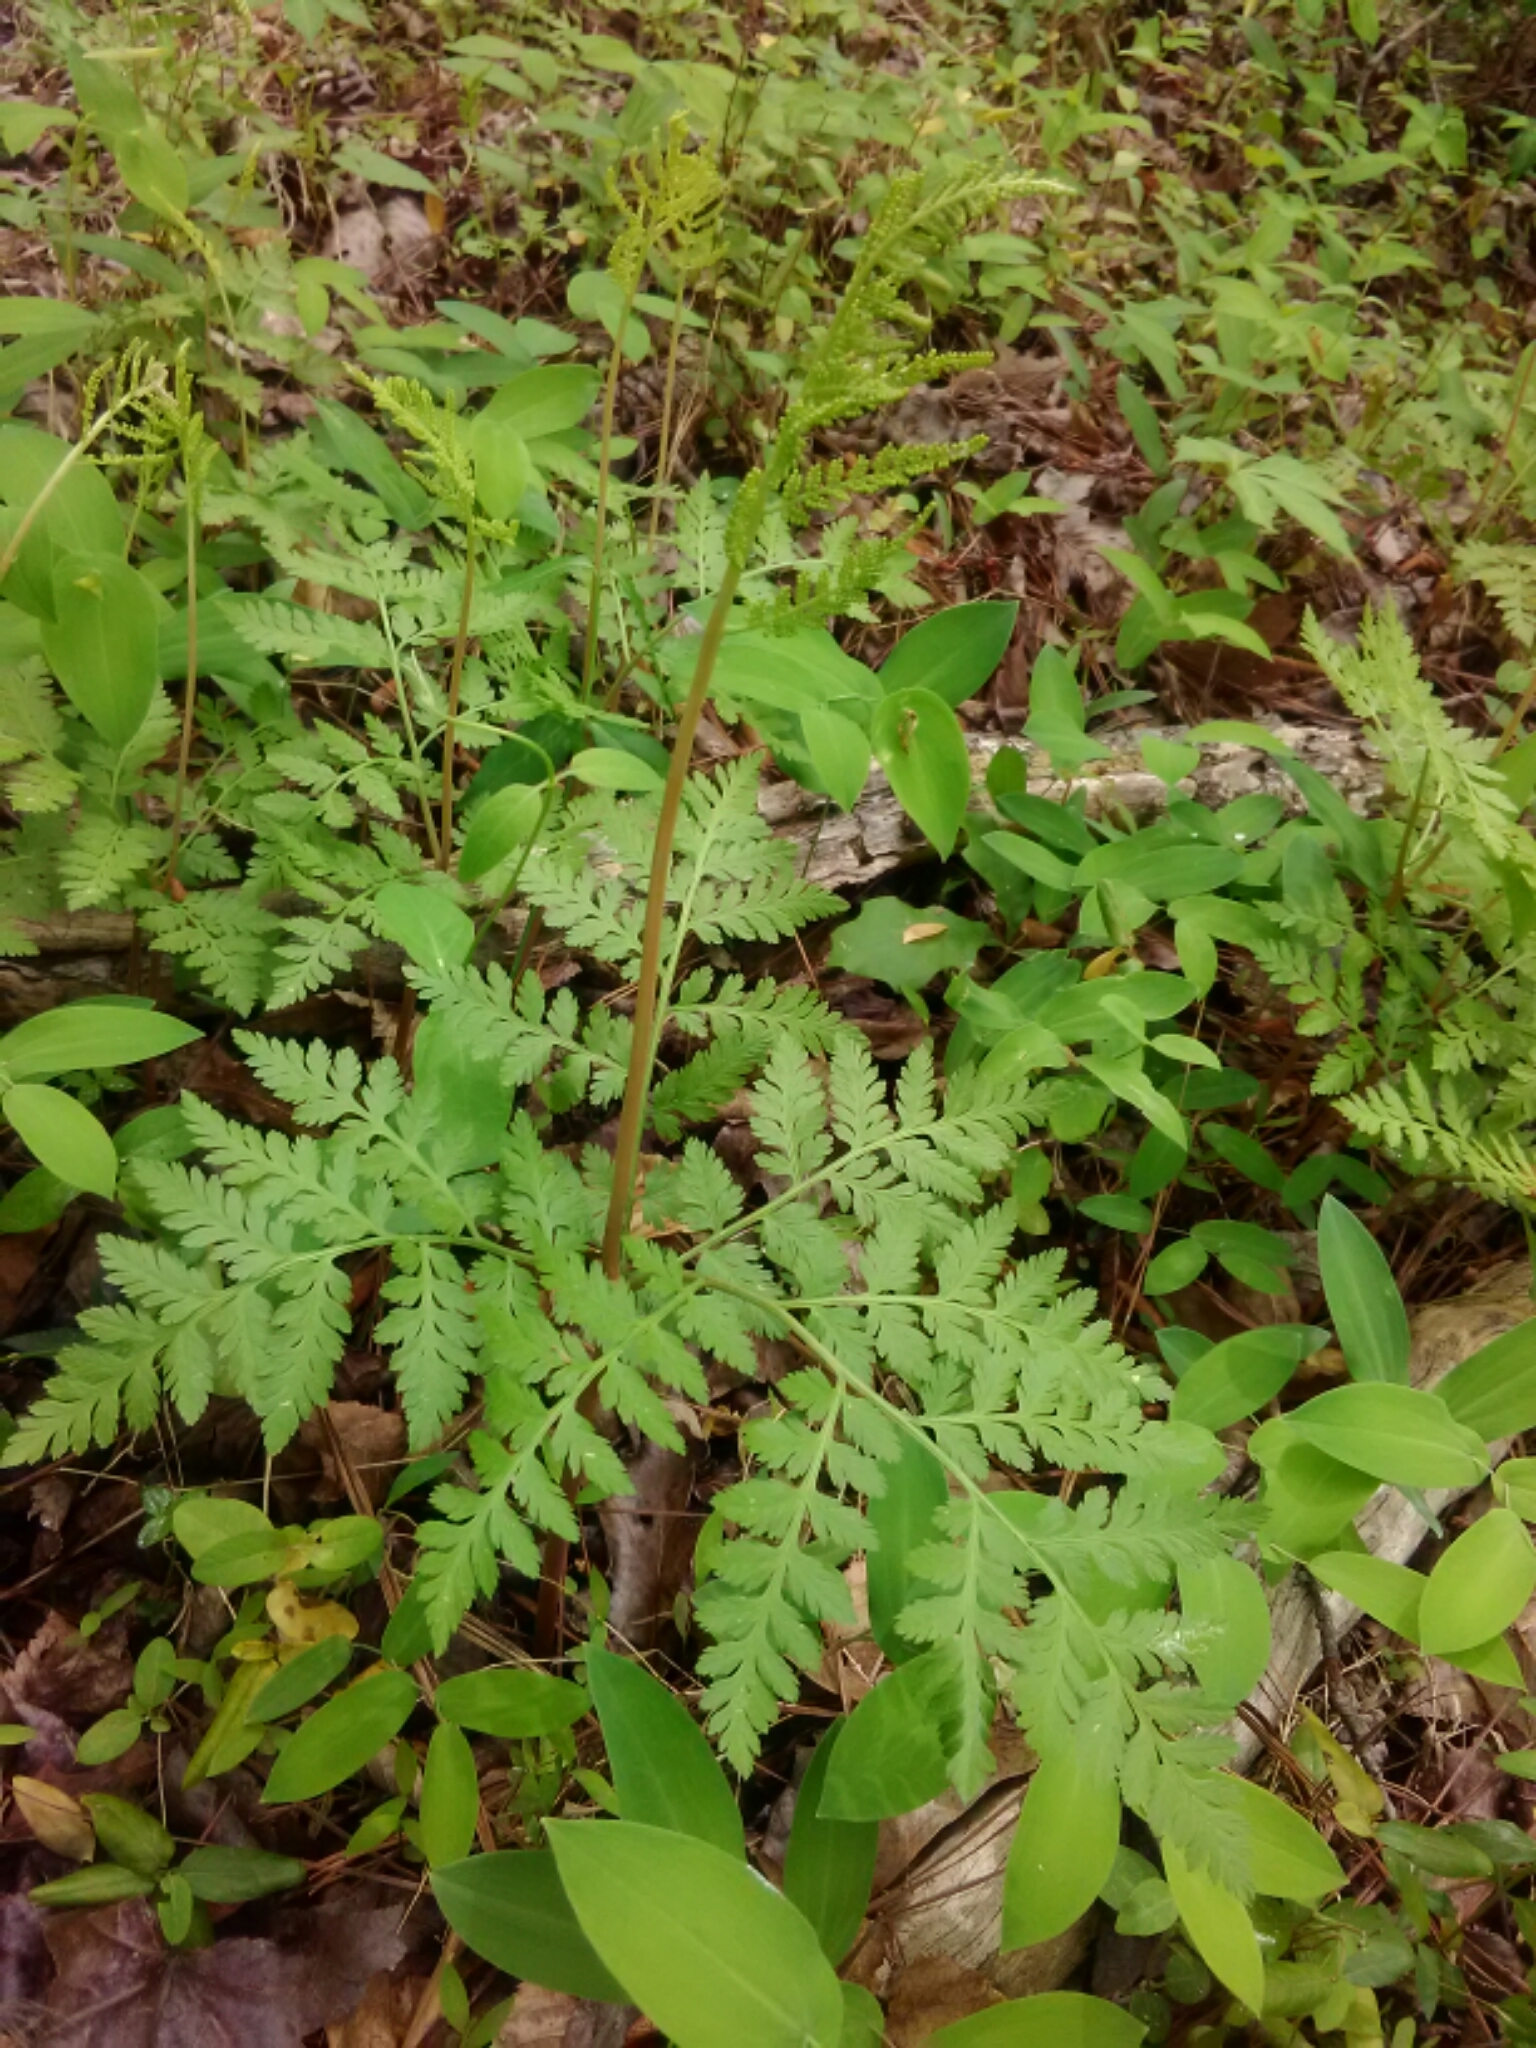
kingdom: Plantae
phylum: Tracheophyta
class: Polypodiopsida
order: Ophioglossales
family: Ophioglossaceae
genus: Botrypus
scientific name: Botrypus virginianus
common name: Common grapefern
